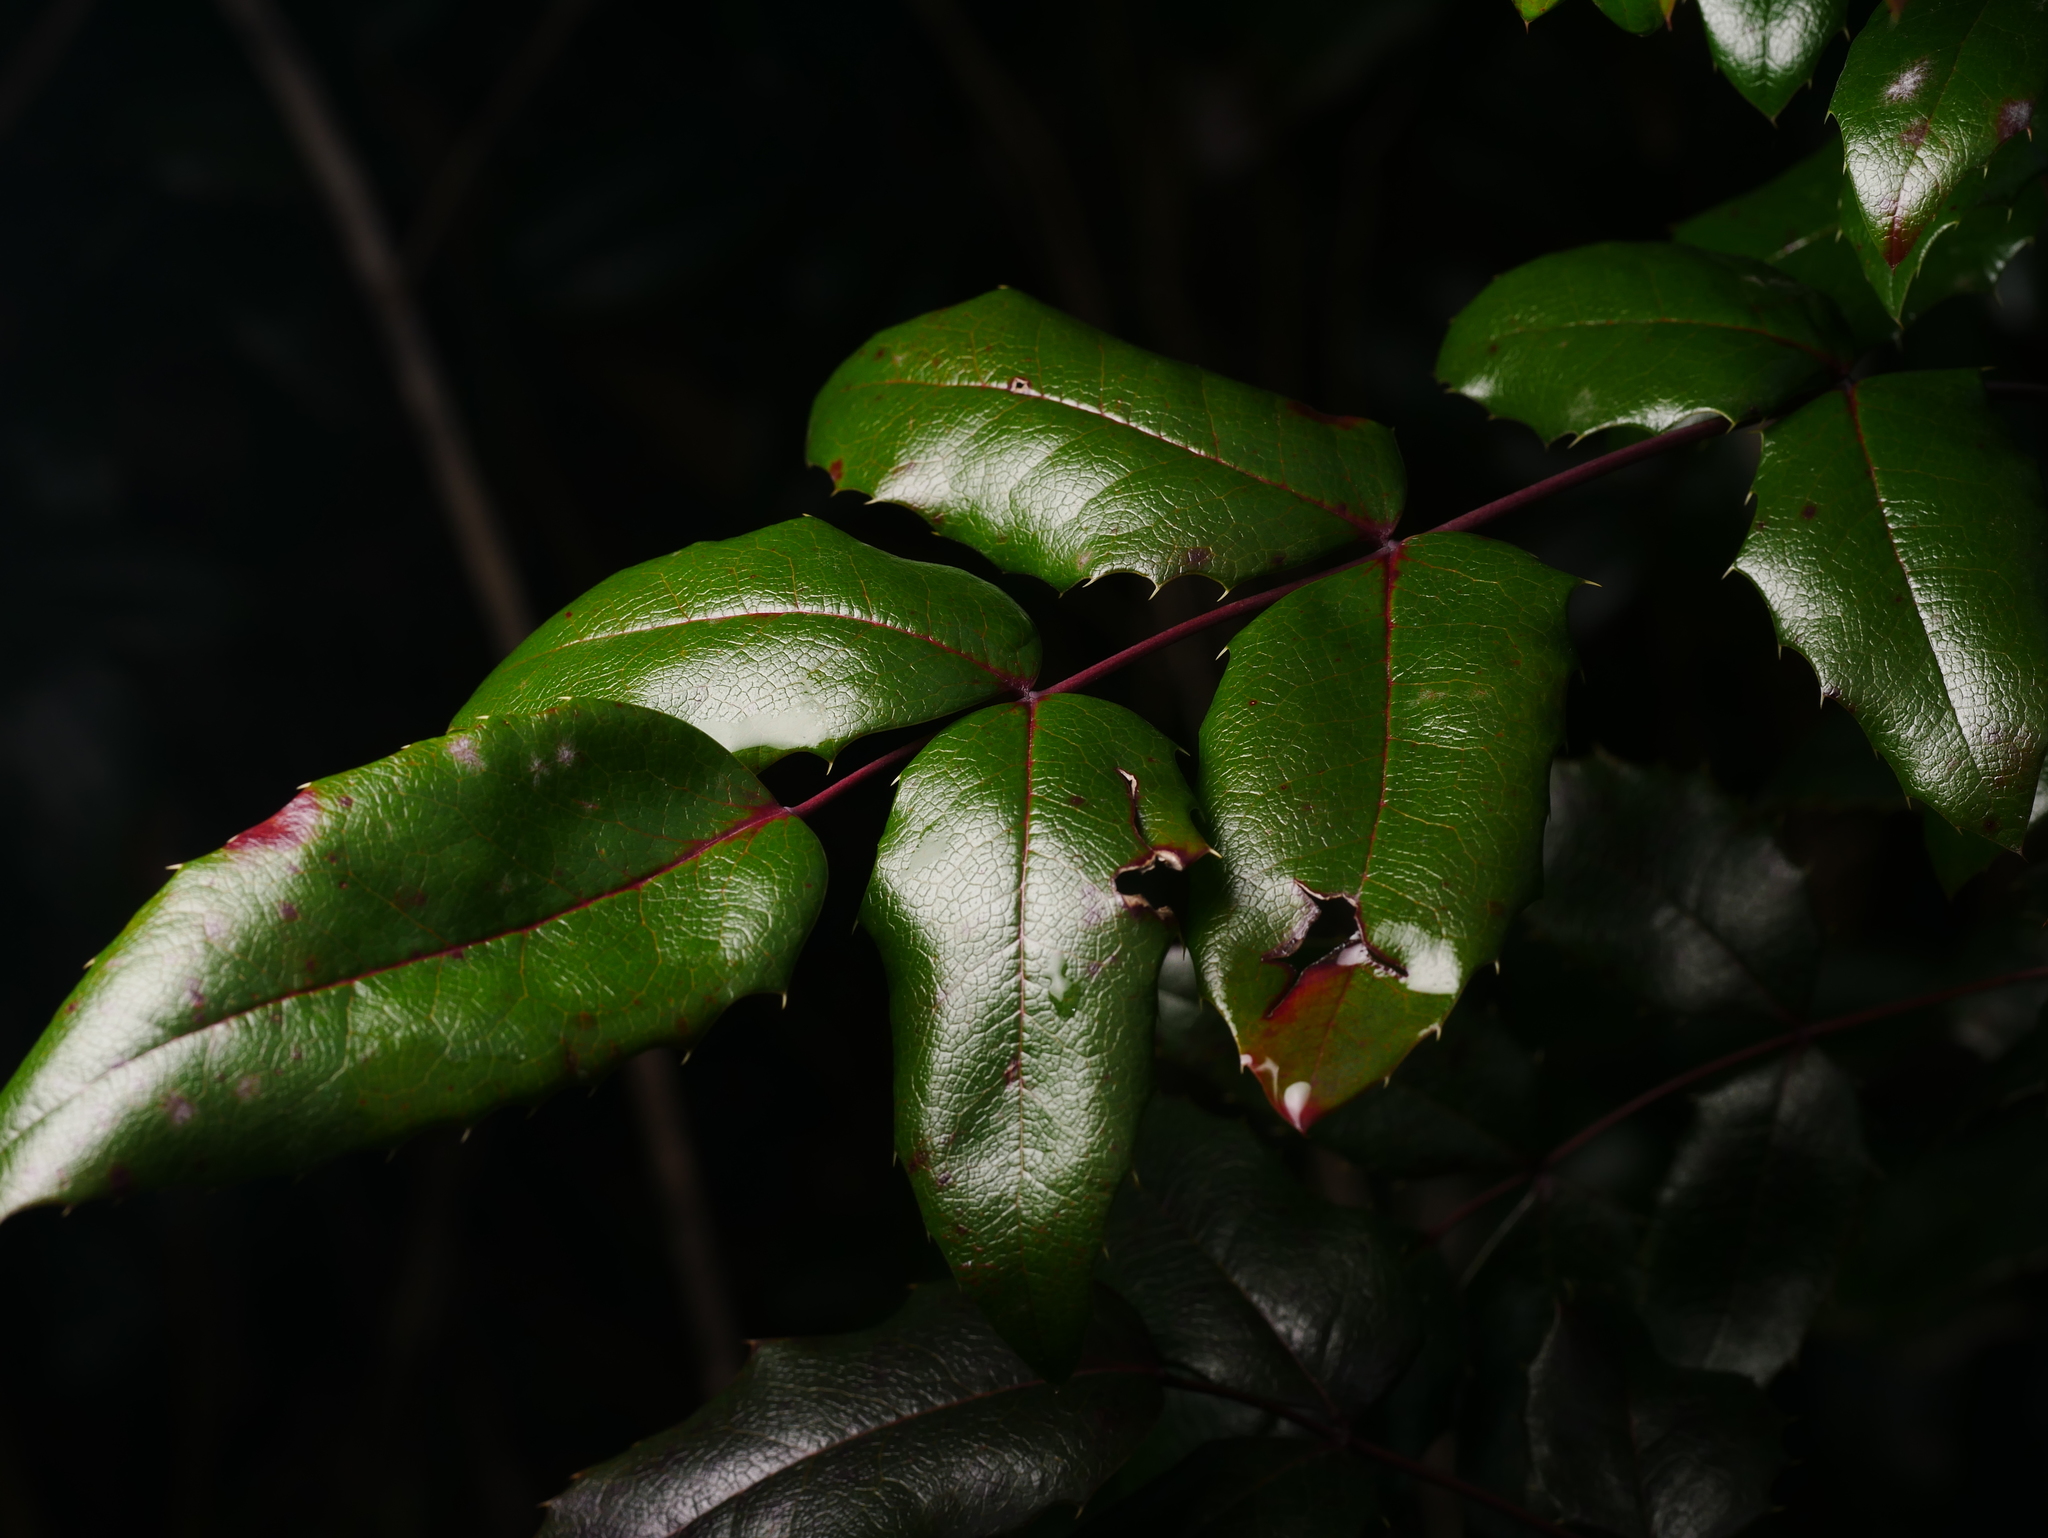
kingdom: Plantae
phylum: Tracheophyta
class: Magnoliopsida
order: Ranunculales
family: Berberidaceae
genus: Mahonia
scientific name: Mahonia aquifolium
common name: Oregon-grape
